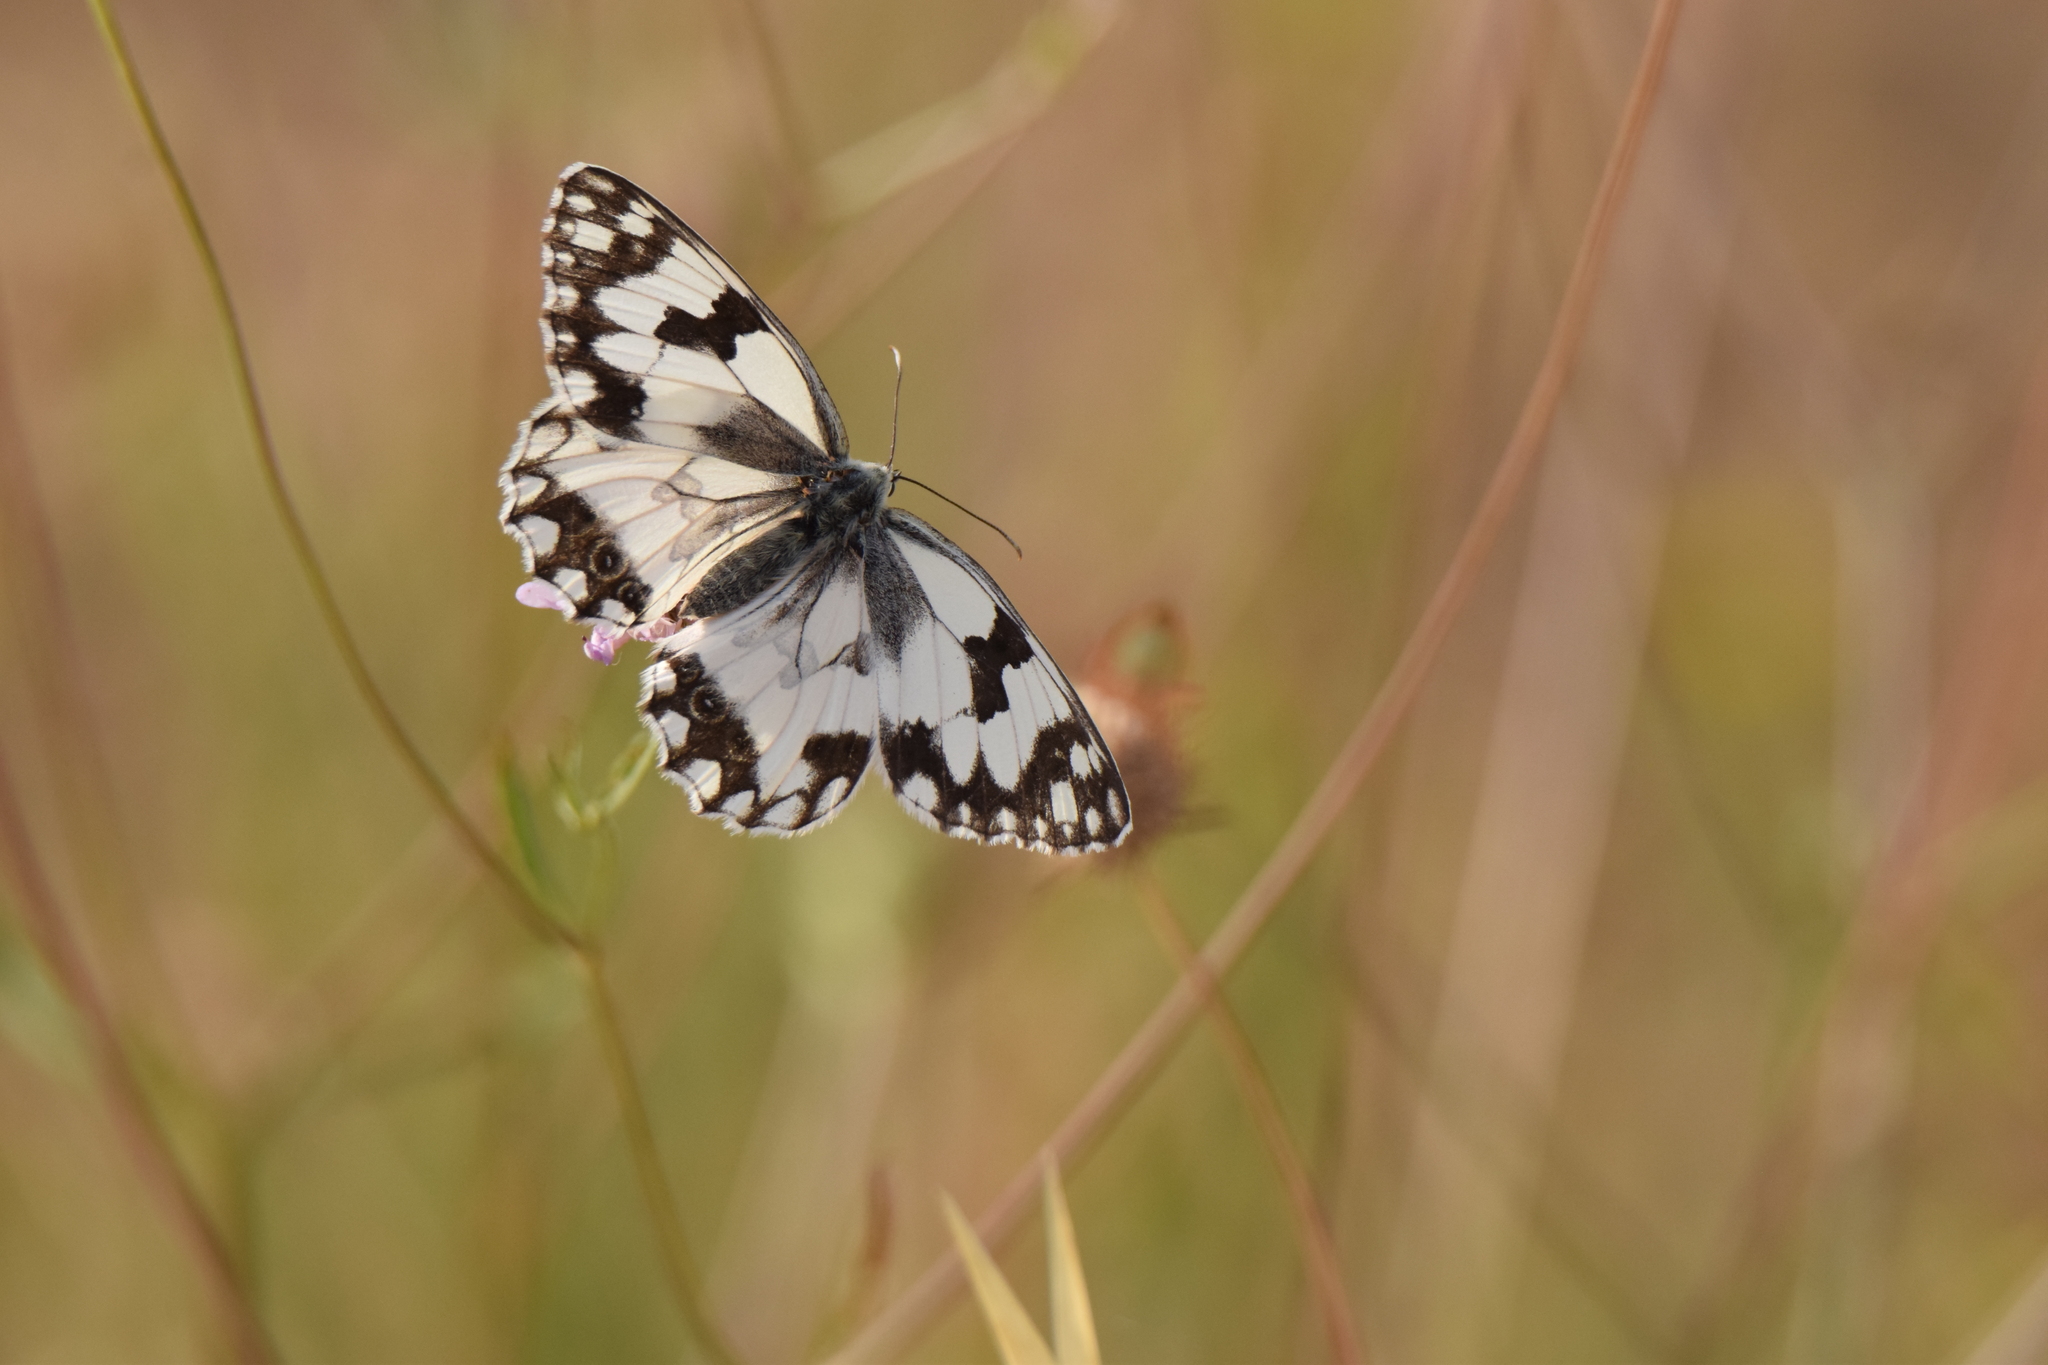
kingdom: Animalia
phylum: Arthropoda
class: Insecta
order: Lepidoptera
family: Nymphalidae
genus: Melanargia
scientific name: Melanargia lachesis
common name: Iberian marbled white
